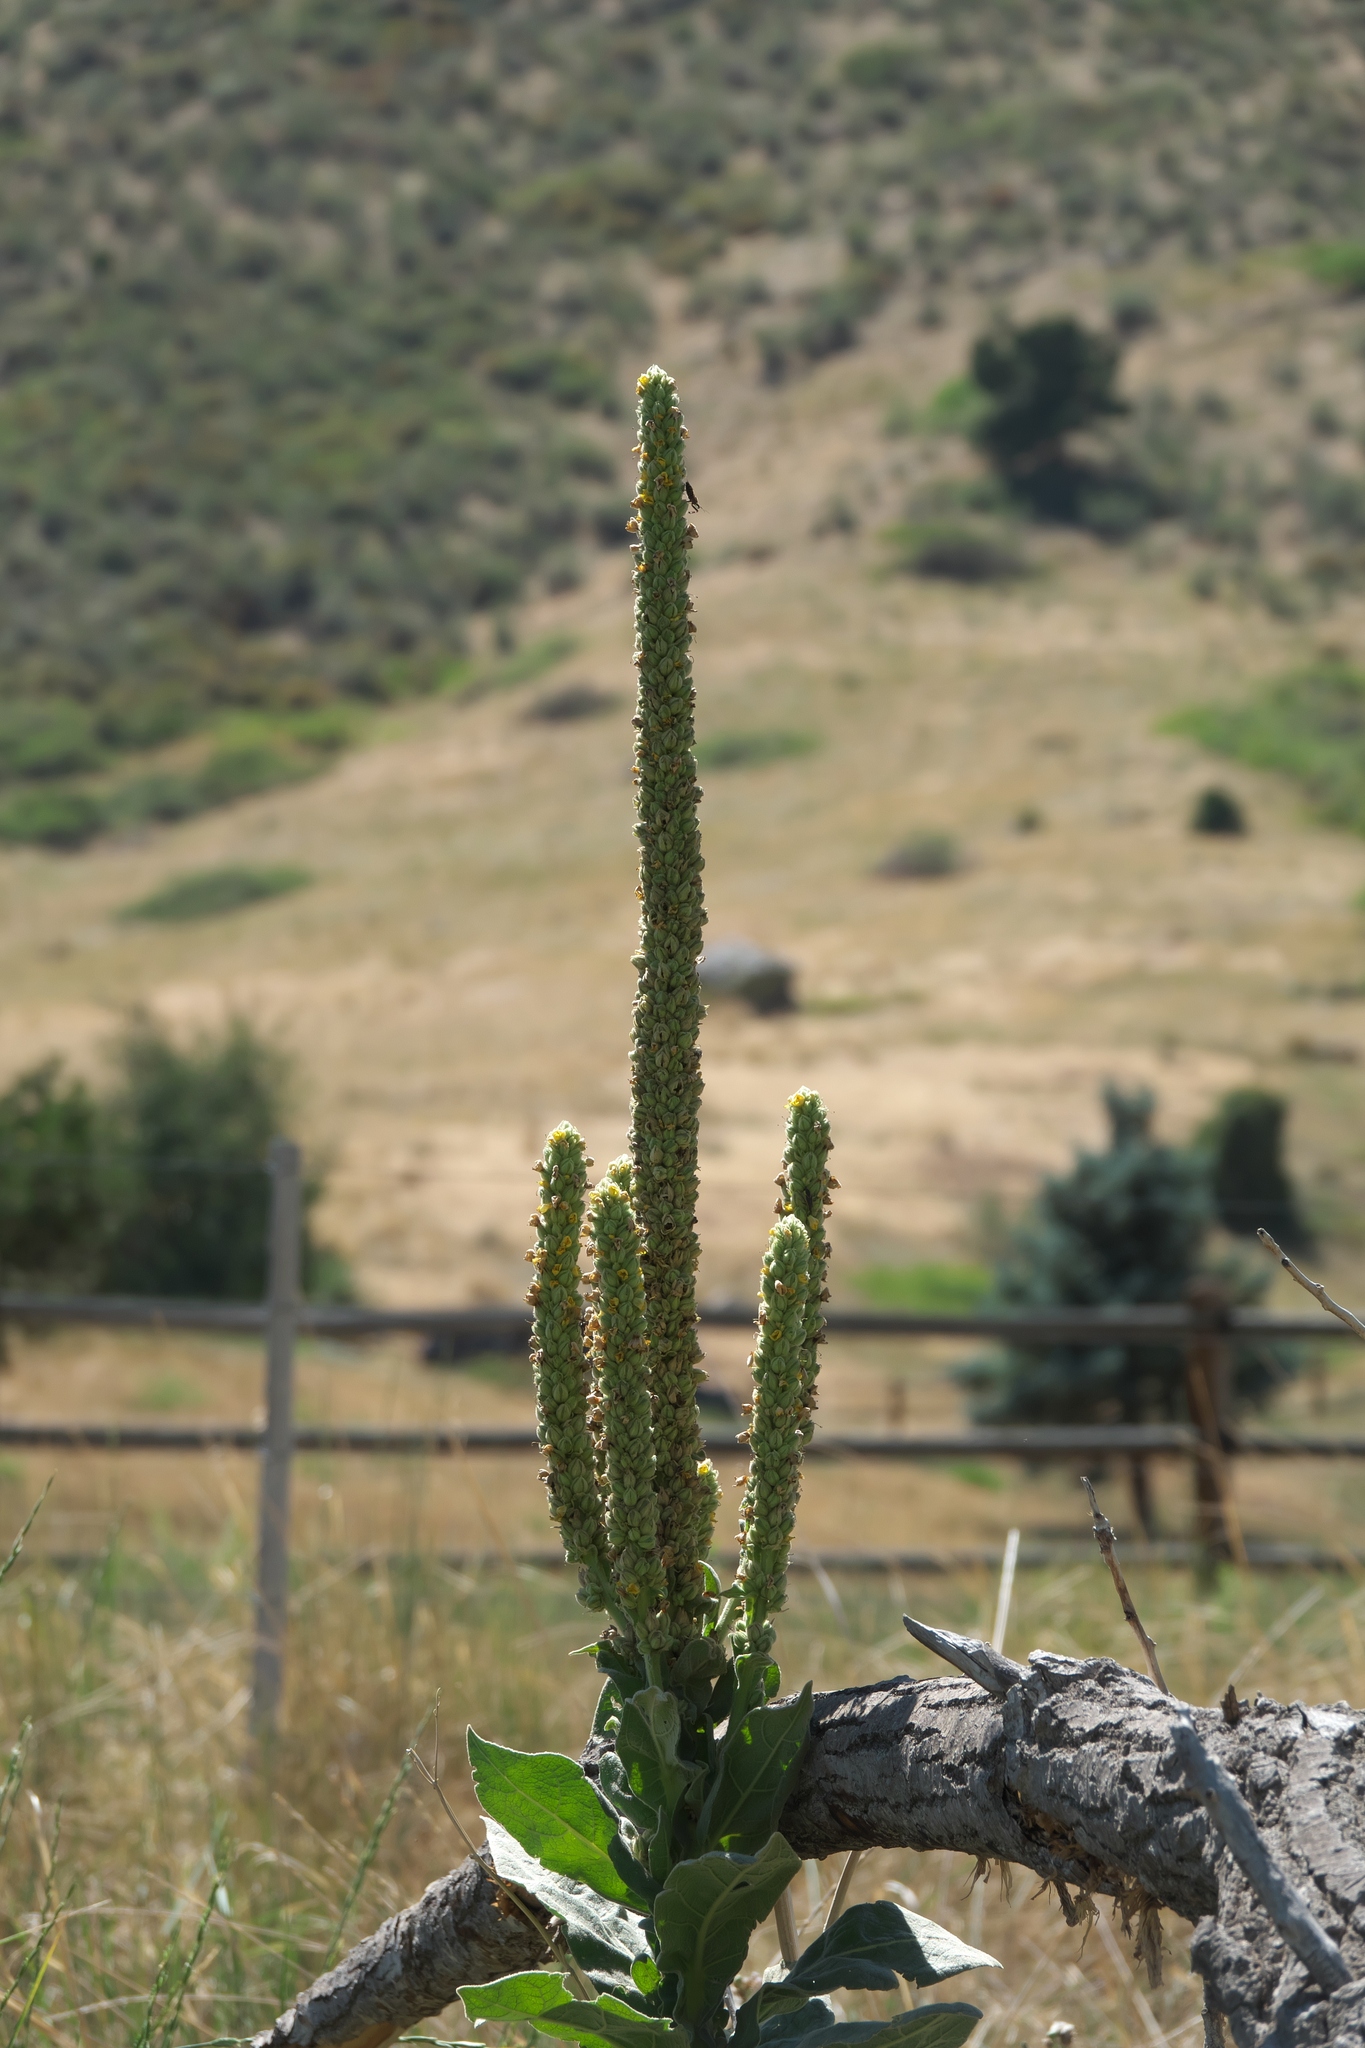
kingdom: Plantae
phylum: Tracheophyta
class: Magnoliopsida
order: Lamiales
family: Scrophulariaceae
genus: Verbascum
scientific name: Verbascum thapsus
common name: Common mullein
